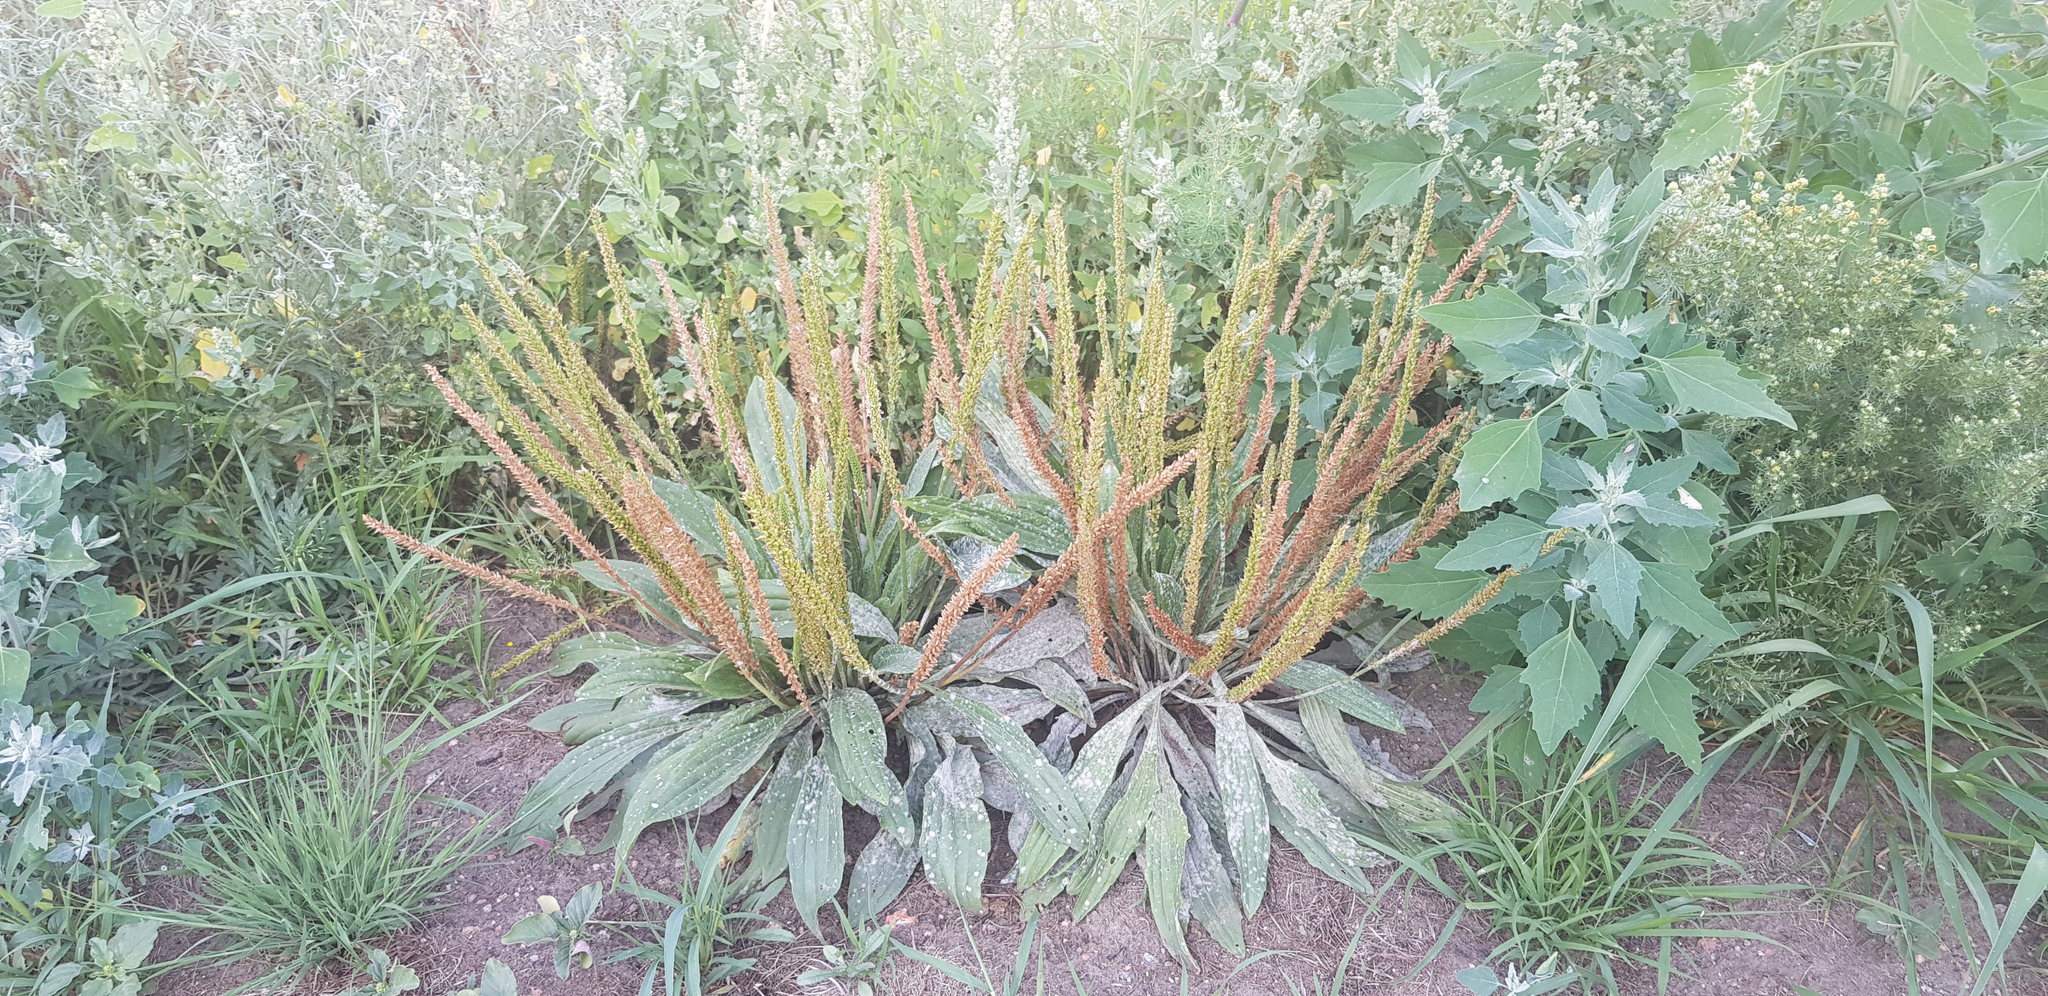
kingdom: Plantae
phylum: Tracheophyta
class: Magnoliopsida
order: Lamiales
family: Plantaginaceae
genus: Plantago
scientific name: Plantago depressa
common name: Depressed plantain
